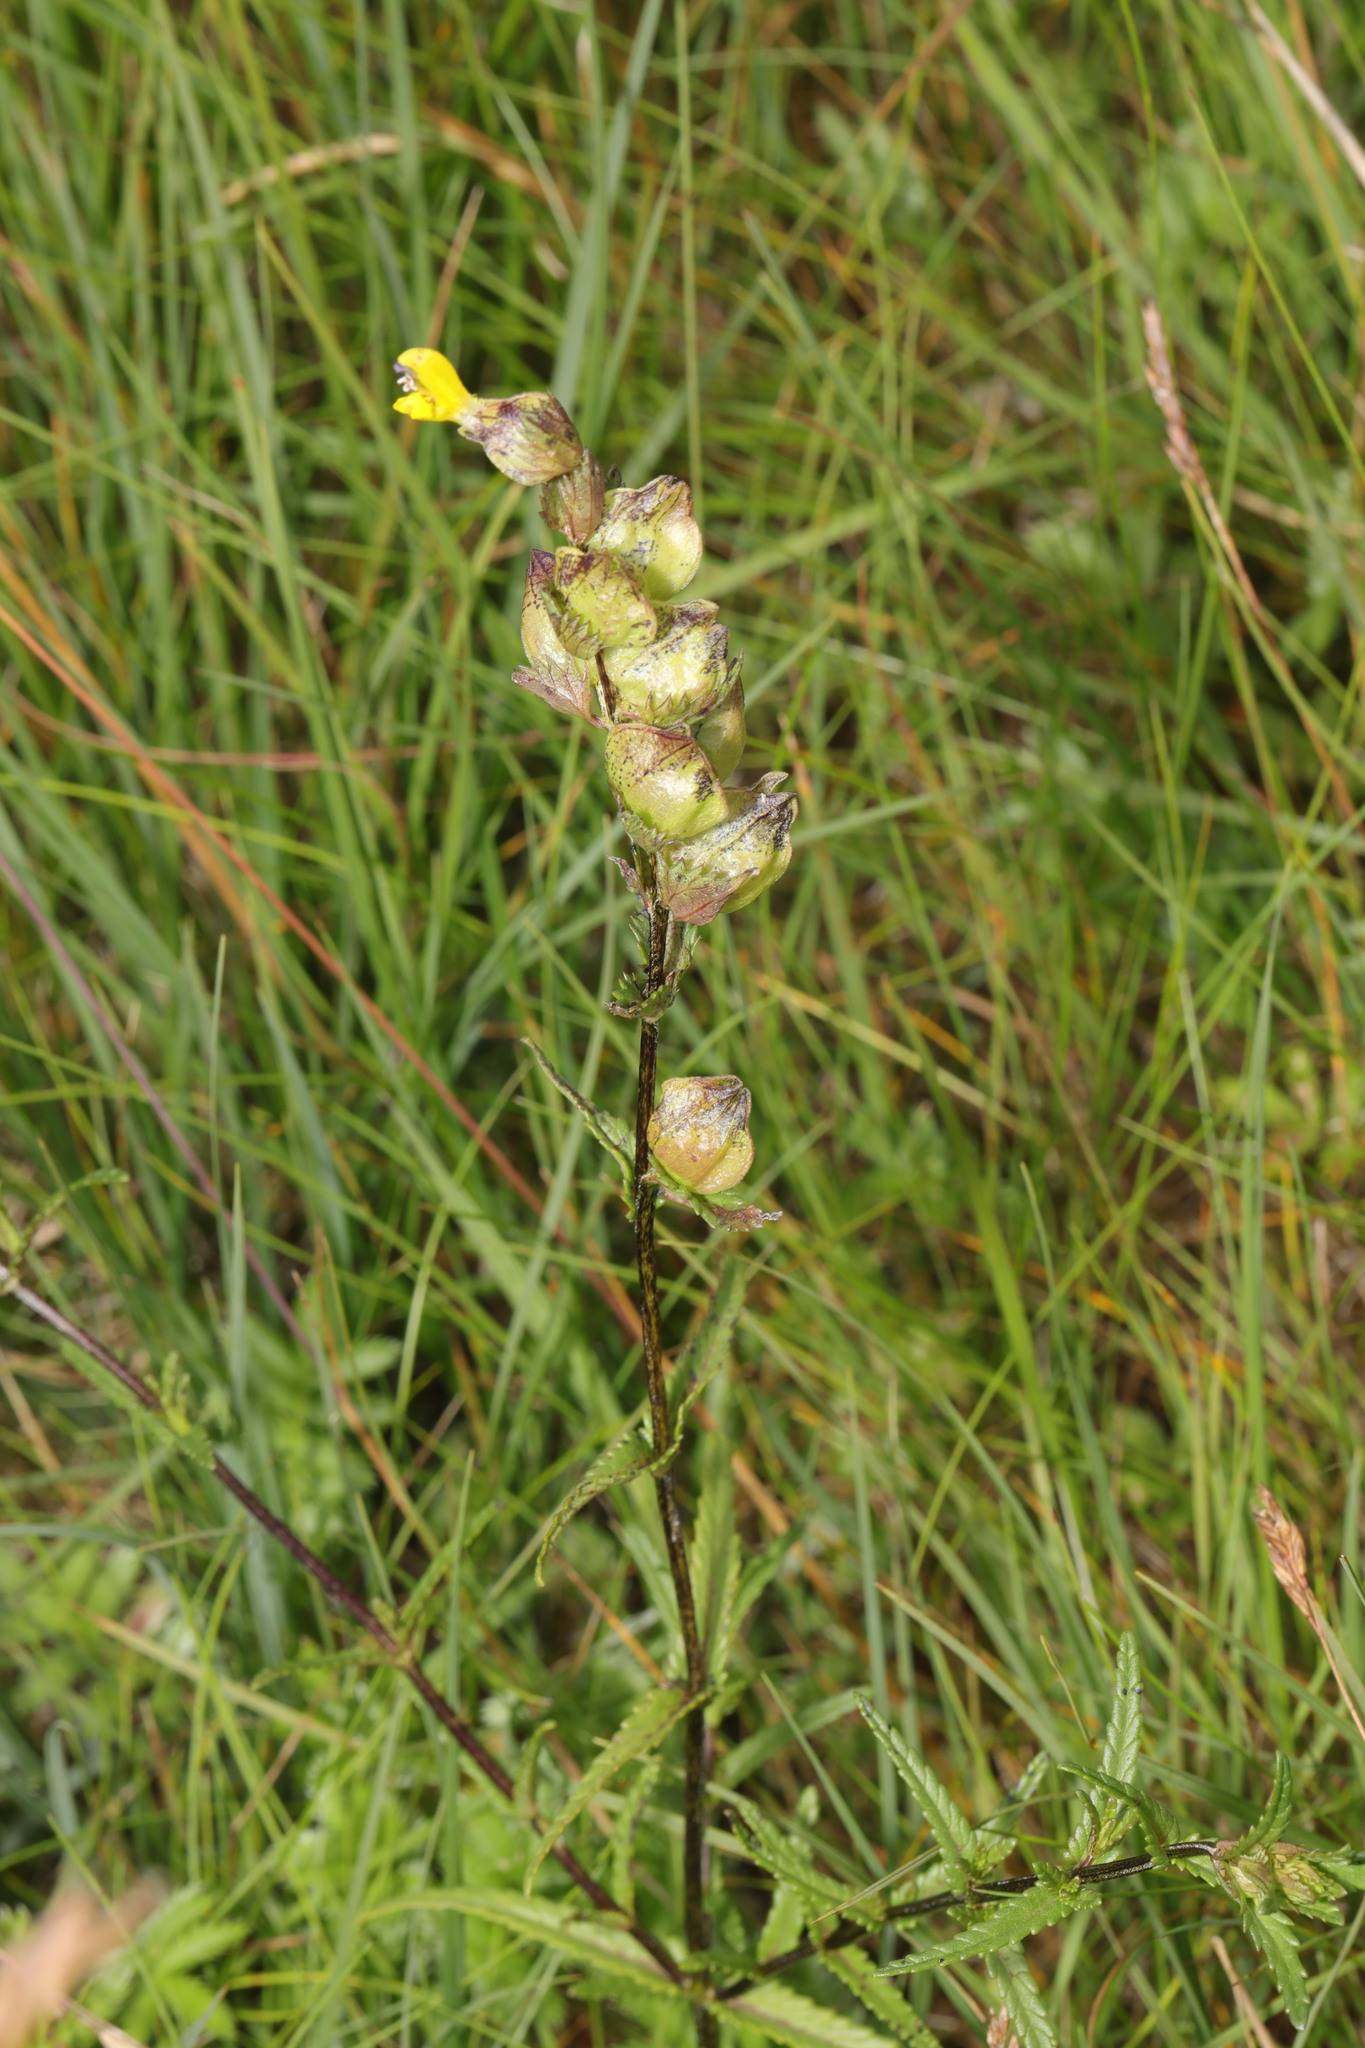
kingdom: Plantae
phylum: Tracheophyta
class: Magnoliopsida
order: Lamiales
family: Orobanchaceae
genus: Rhinanthus
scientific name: Rhinanthus minor
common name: Yellow-rattle
